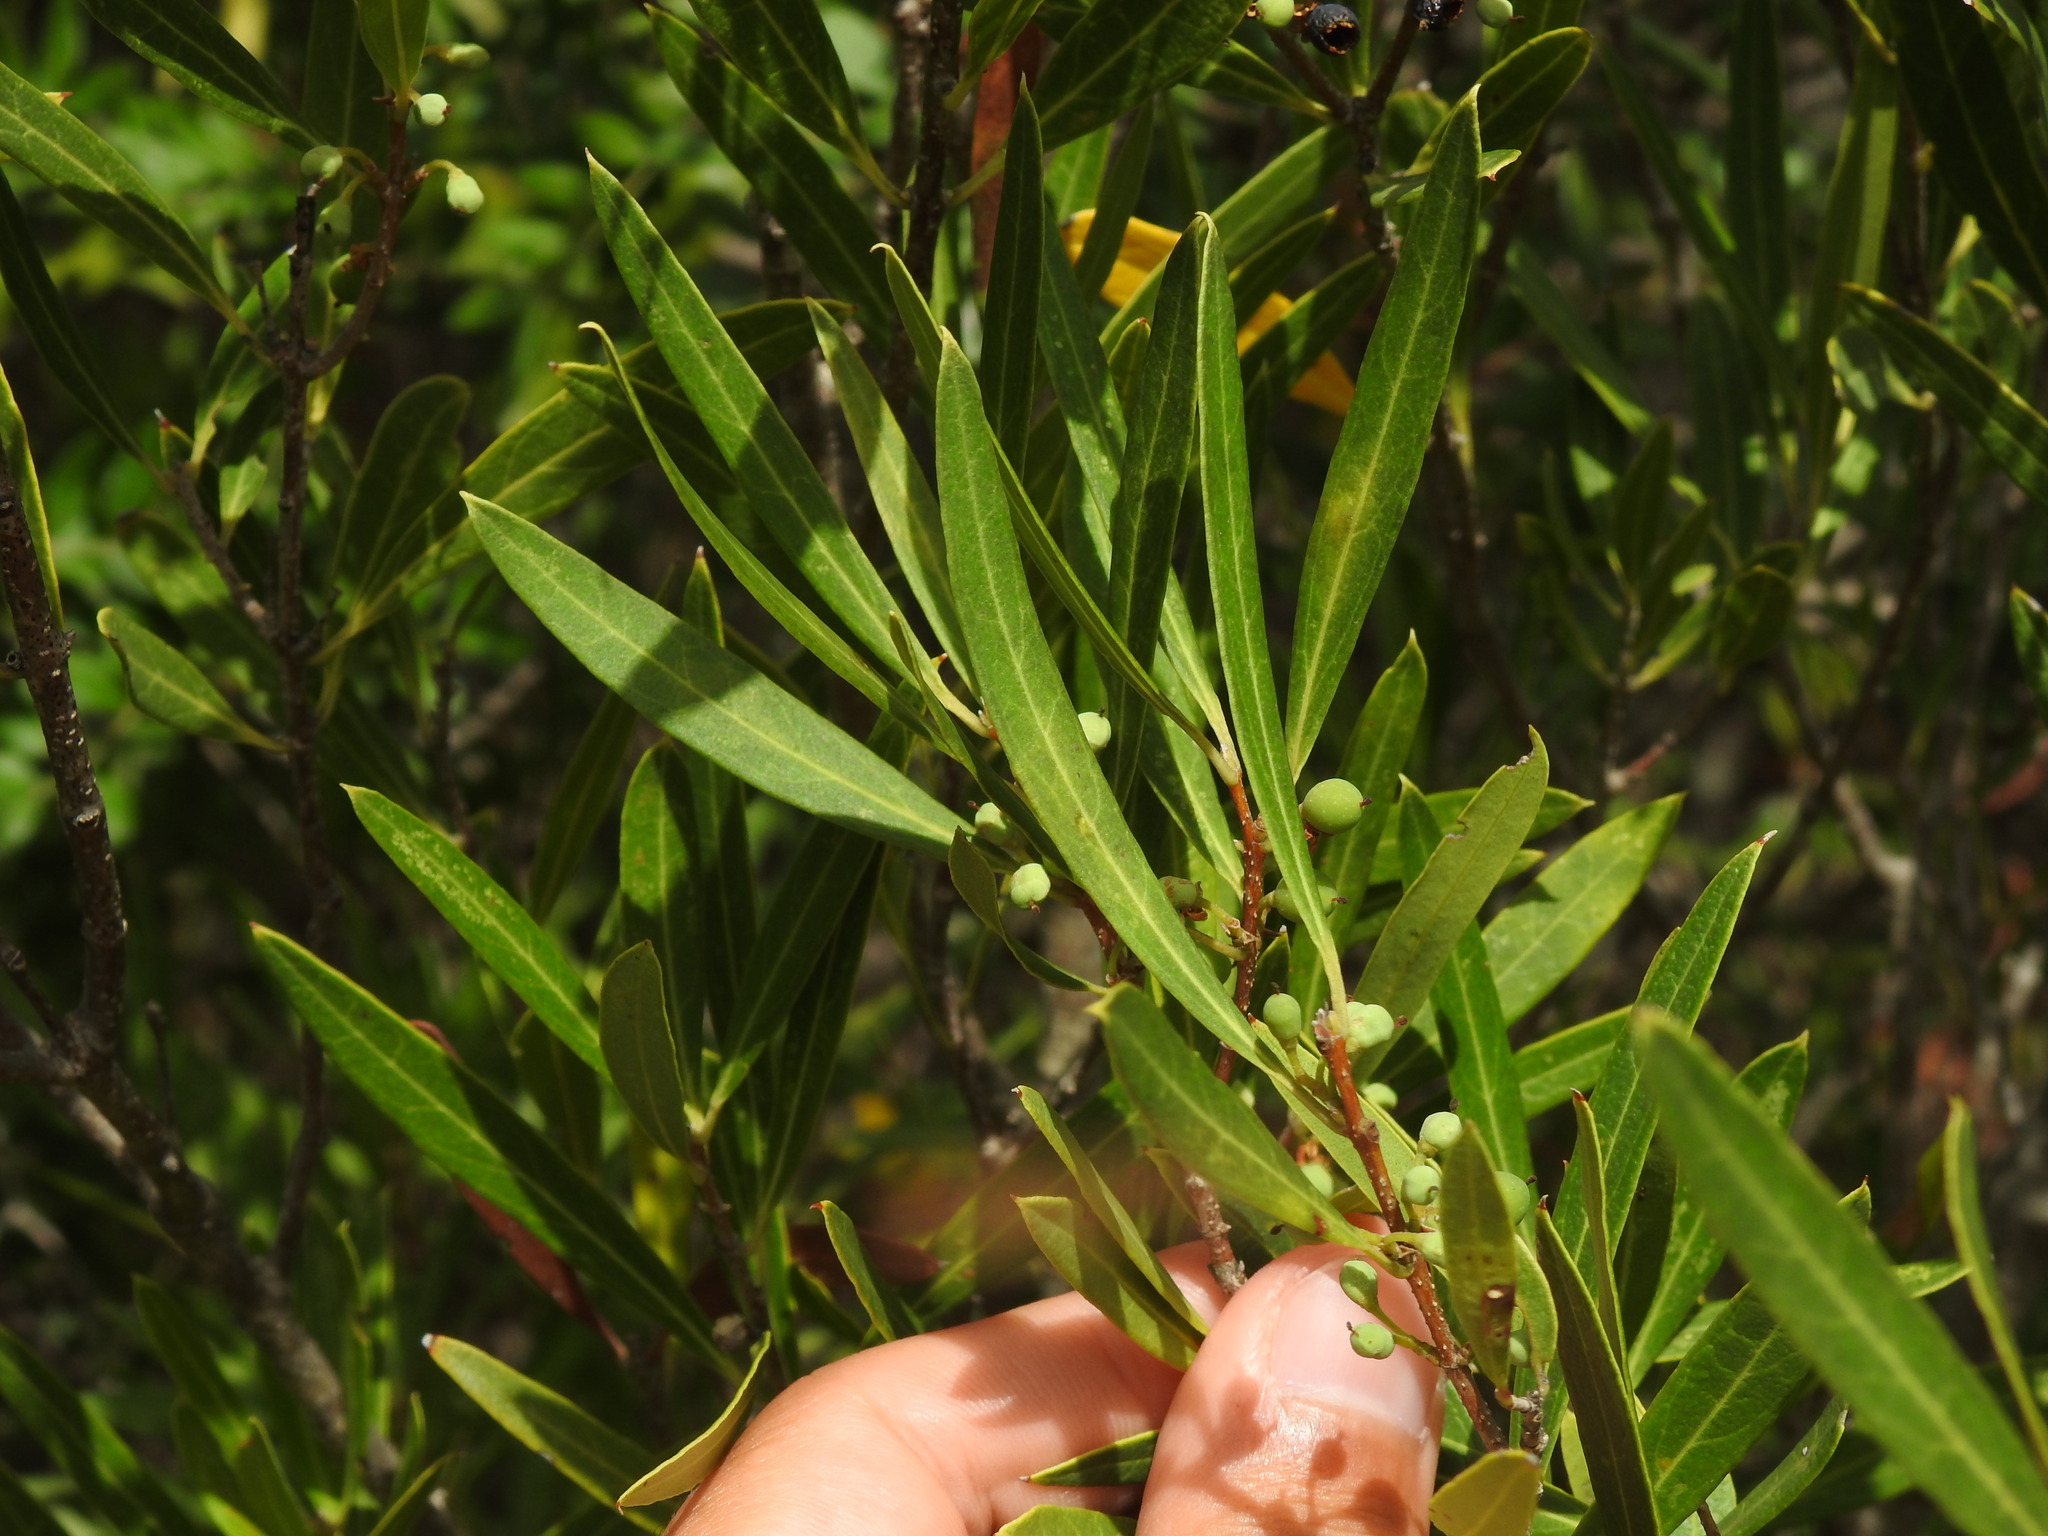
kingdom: Plantae
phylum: Tracheophyta
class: Magnoliopsida
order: Lamiales
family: Oleaceae
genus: Phillyrea
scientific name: Phillyrea angustifolia
